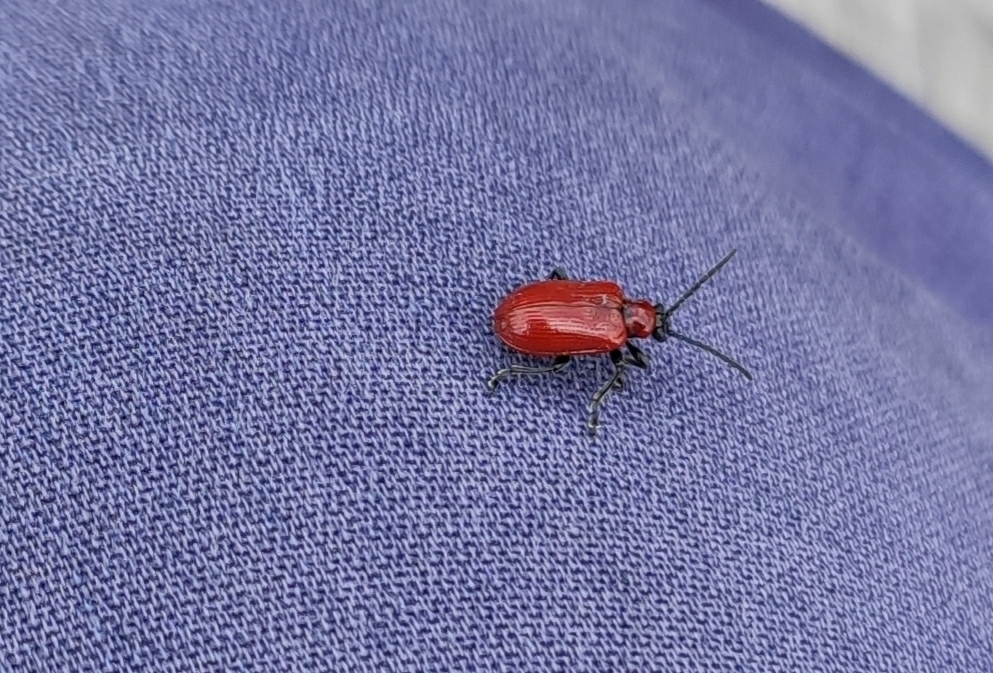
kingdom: Animalia
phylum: Arthropoda
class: Insecta
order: Coleoptera
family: Chrysomelidae
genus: Lilioceris
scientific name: Lilioceris lilii
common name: Lily beetle
